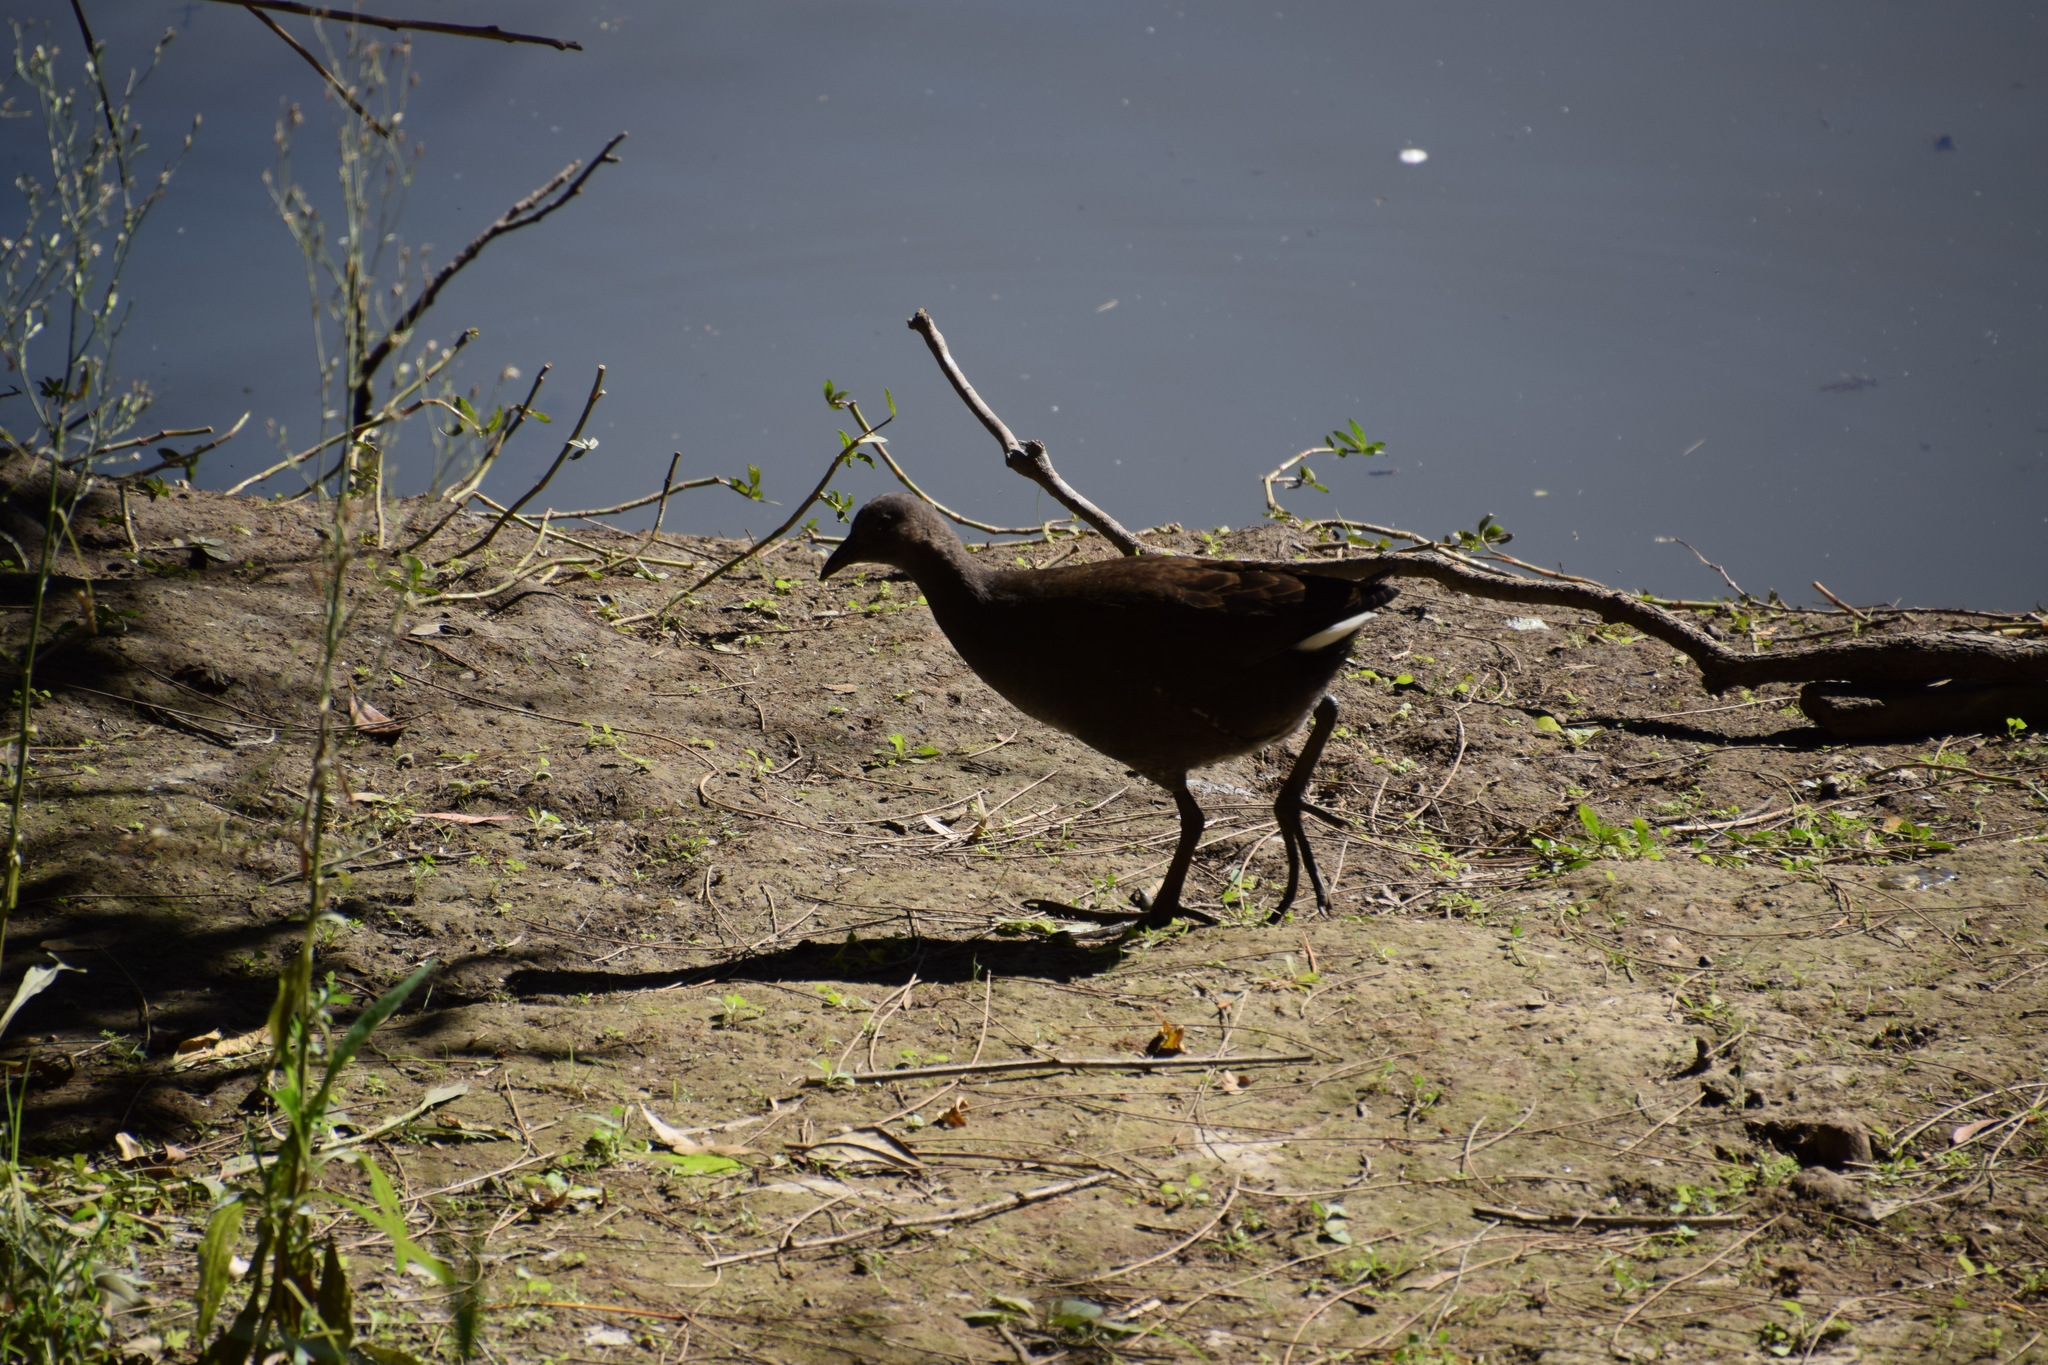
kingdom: Animalia
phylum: Chordata
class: Aves
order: Gruiformes
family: Rallidae
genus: Gallinula
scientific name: Gallinula tenebrosa
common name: Dusky moorhen
